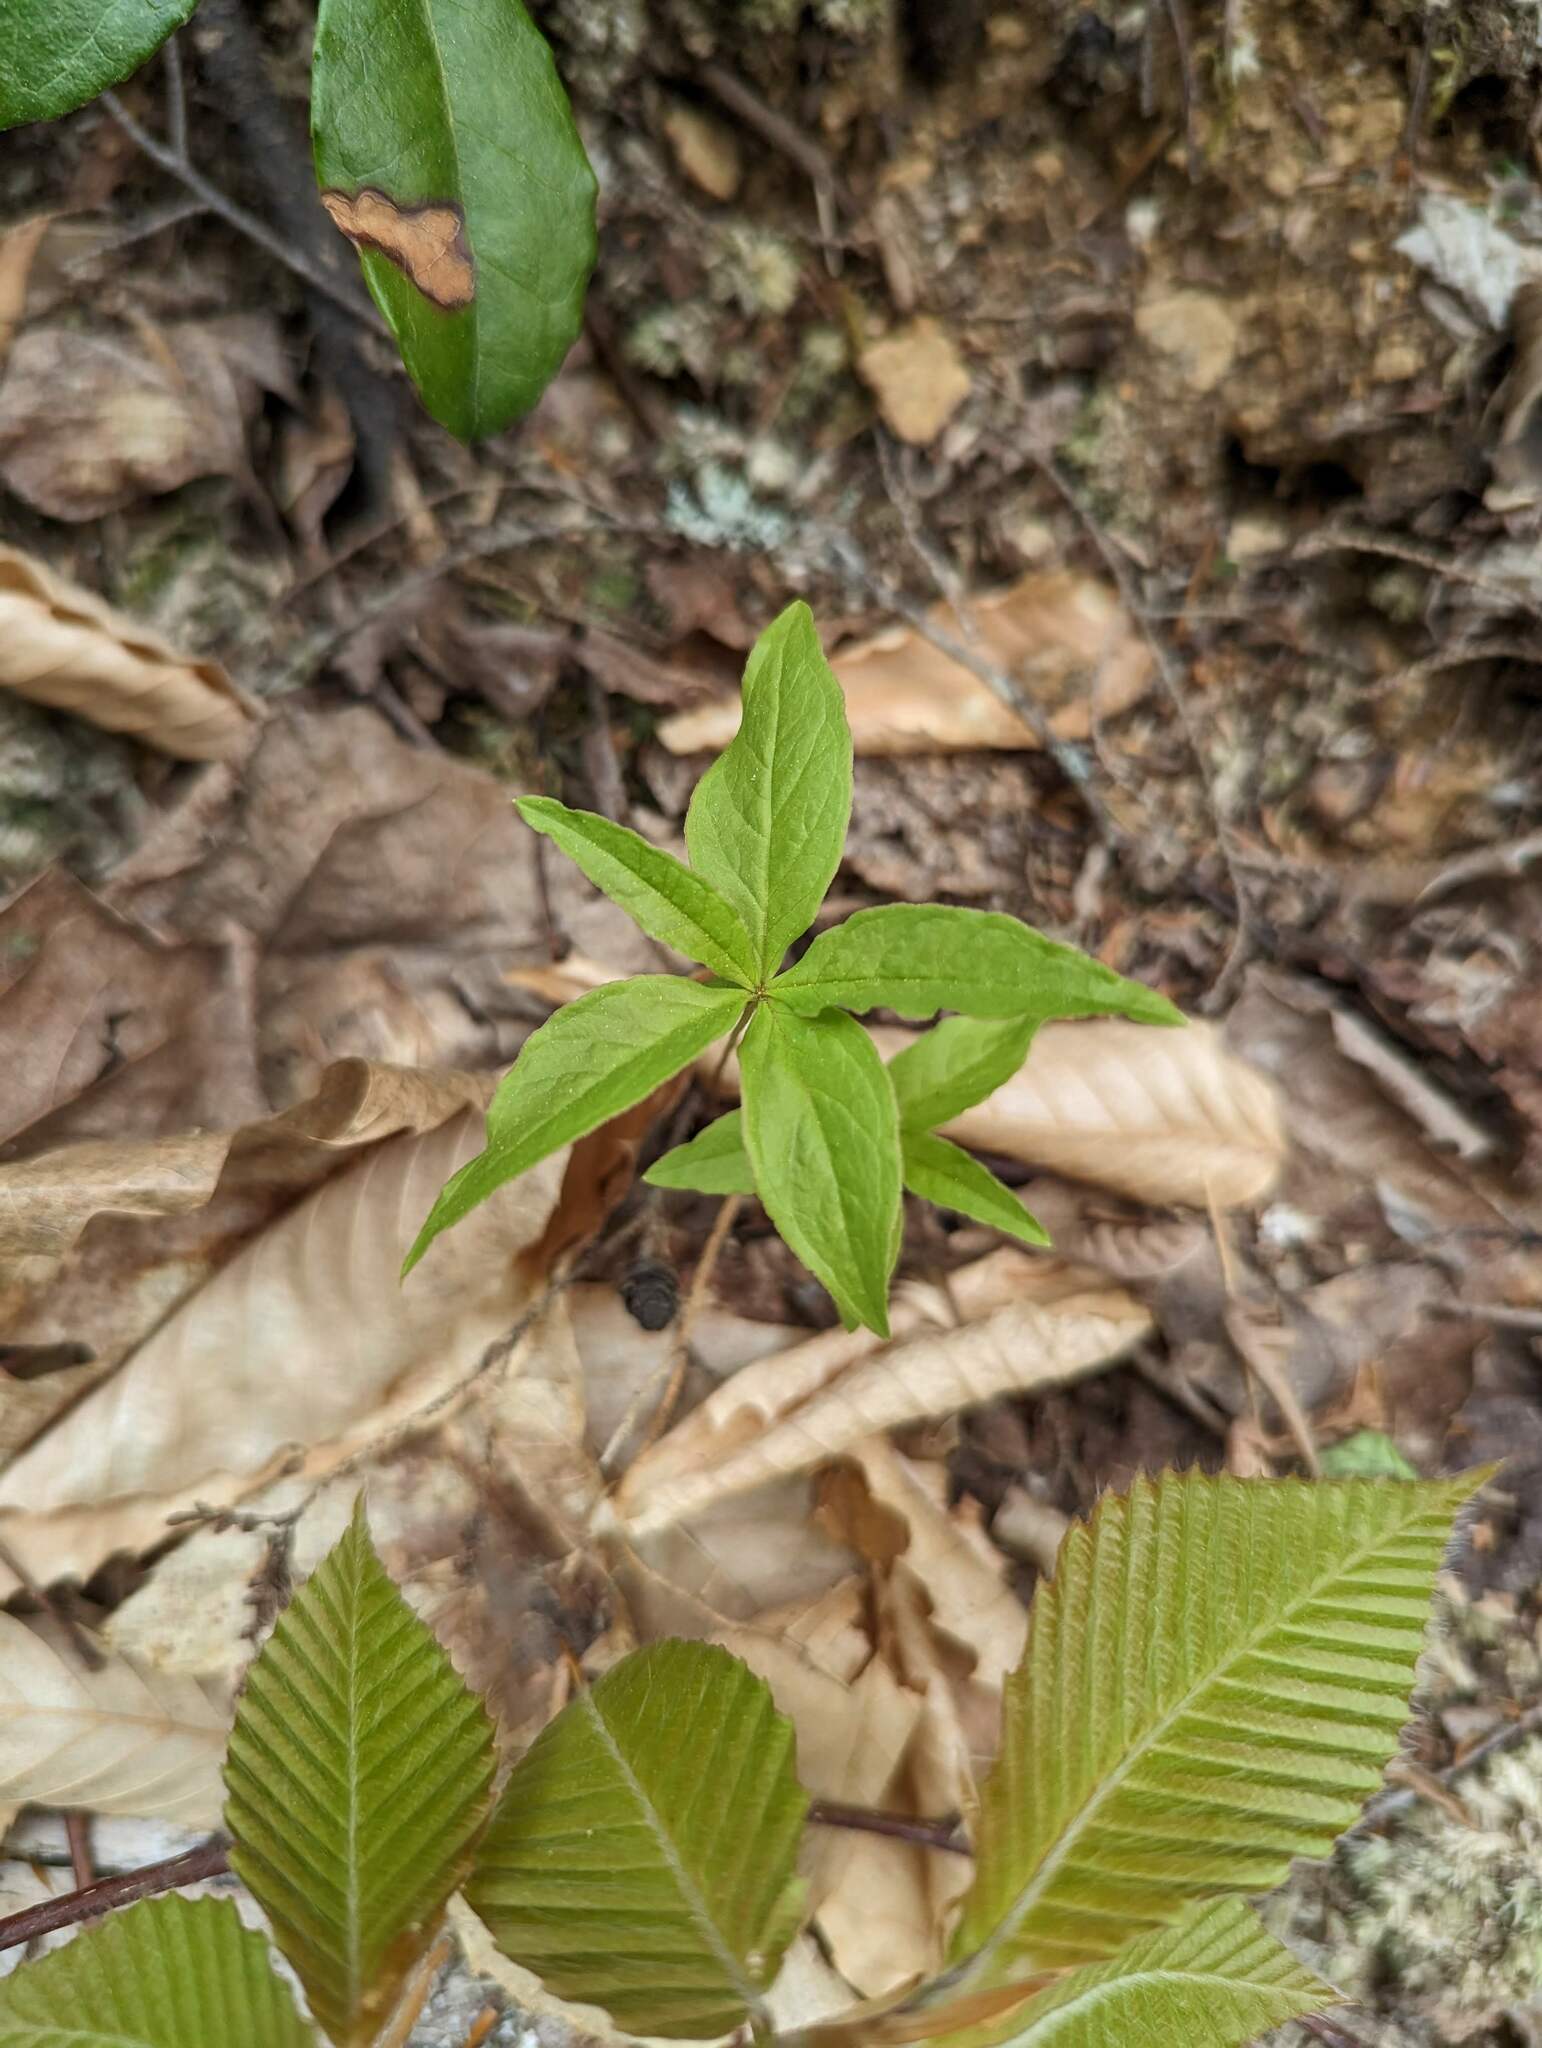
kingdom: Plantae
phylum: Tracheophyta
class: Magnoliopsida
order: Ericales
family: Primulaceae
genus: Lysimachia
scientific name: Lysimachia borealis
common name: American starflower
